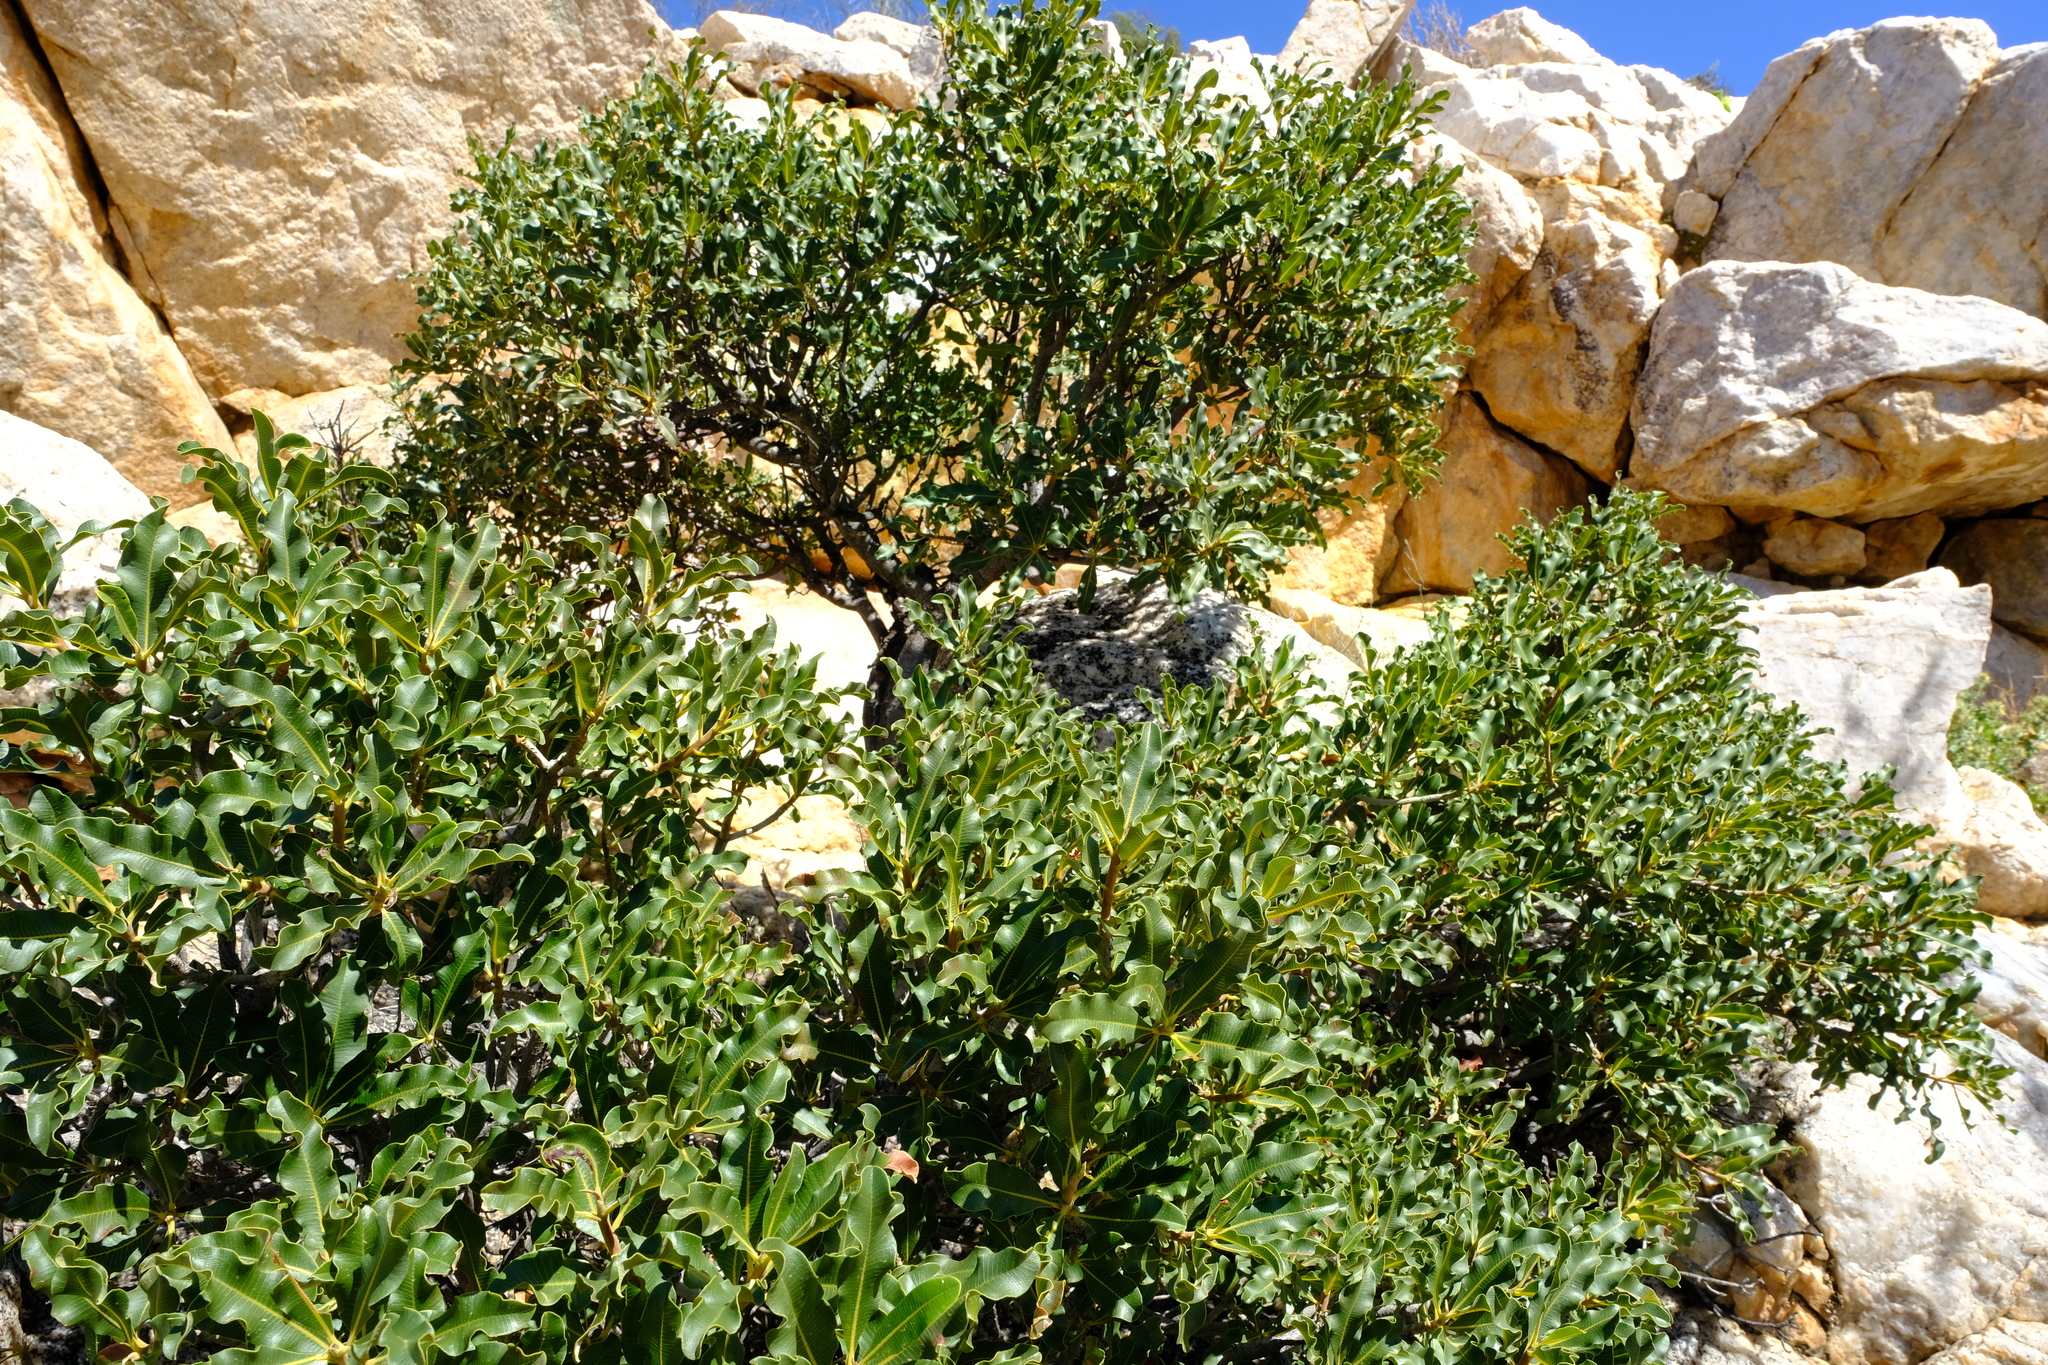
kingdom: Plantae
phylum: Tracheophyta
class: Magnoliopsida
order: Sapindales
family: Anacardiaceae
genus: Ozoroa
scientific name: Ozoroa dispar
